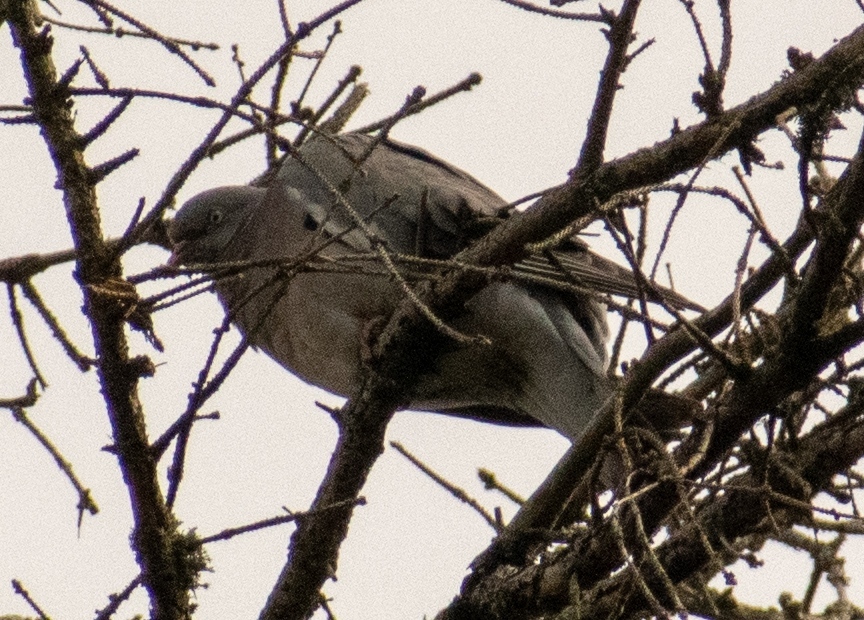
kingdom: Animalia
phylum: Chordata
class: Aves
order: Columbiformes
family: Columbidae
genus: Columba
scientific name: Columba palumbus
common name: Common wood pigeon
